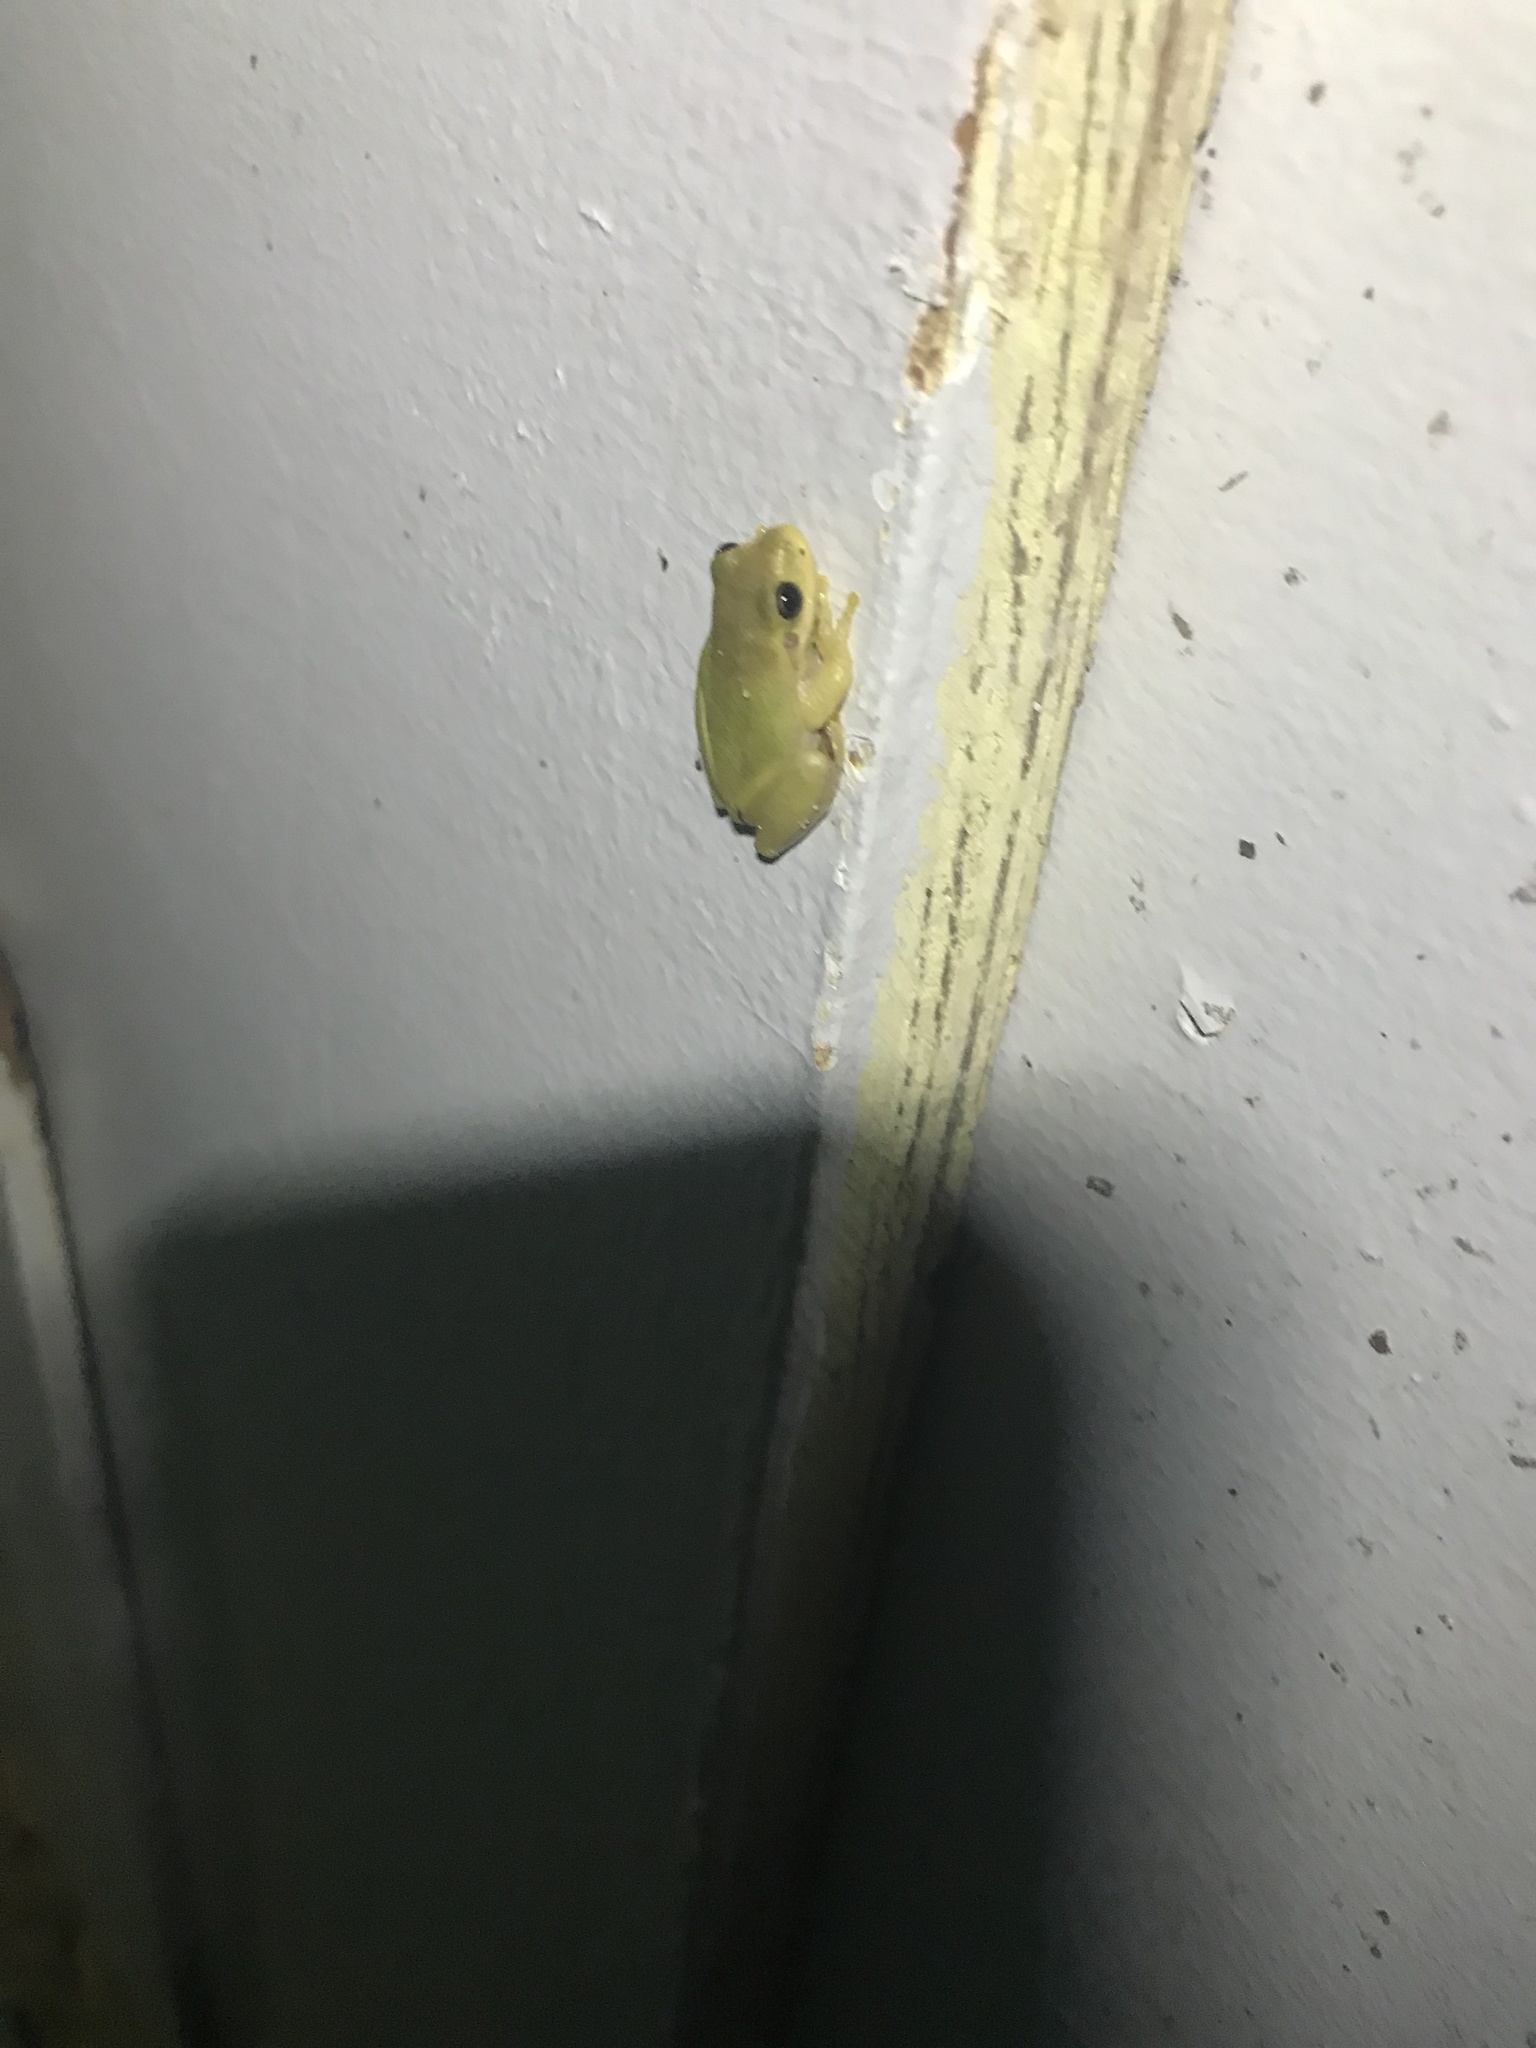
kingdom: Animalia
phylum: Chordata
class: Amphibia
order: Anura
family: Hylidae
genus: Dryophytes
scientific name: Dryophytes squirellus
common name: Squirrel treefrog
